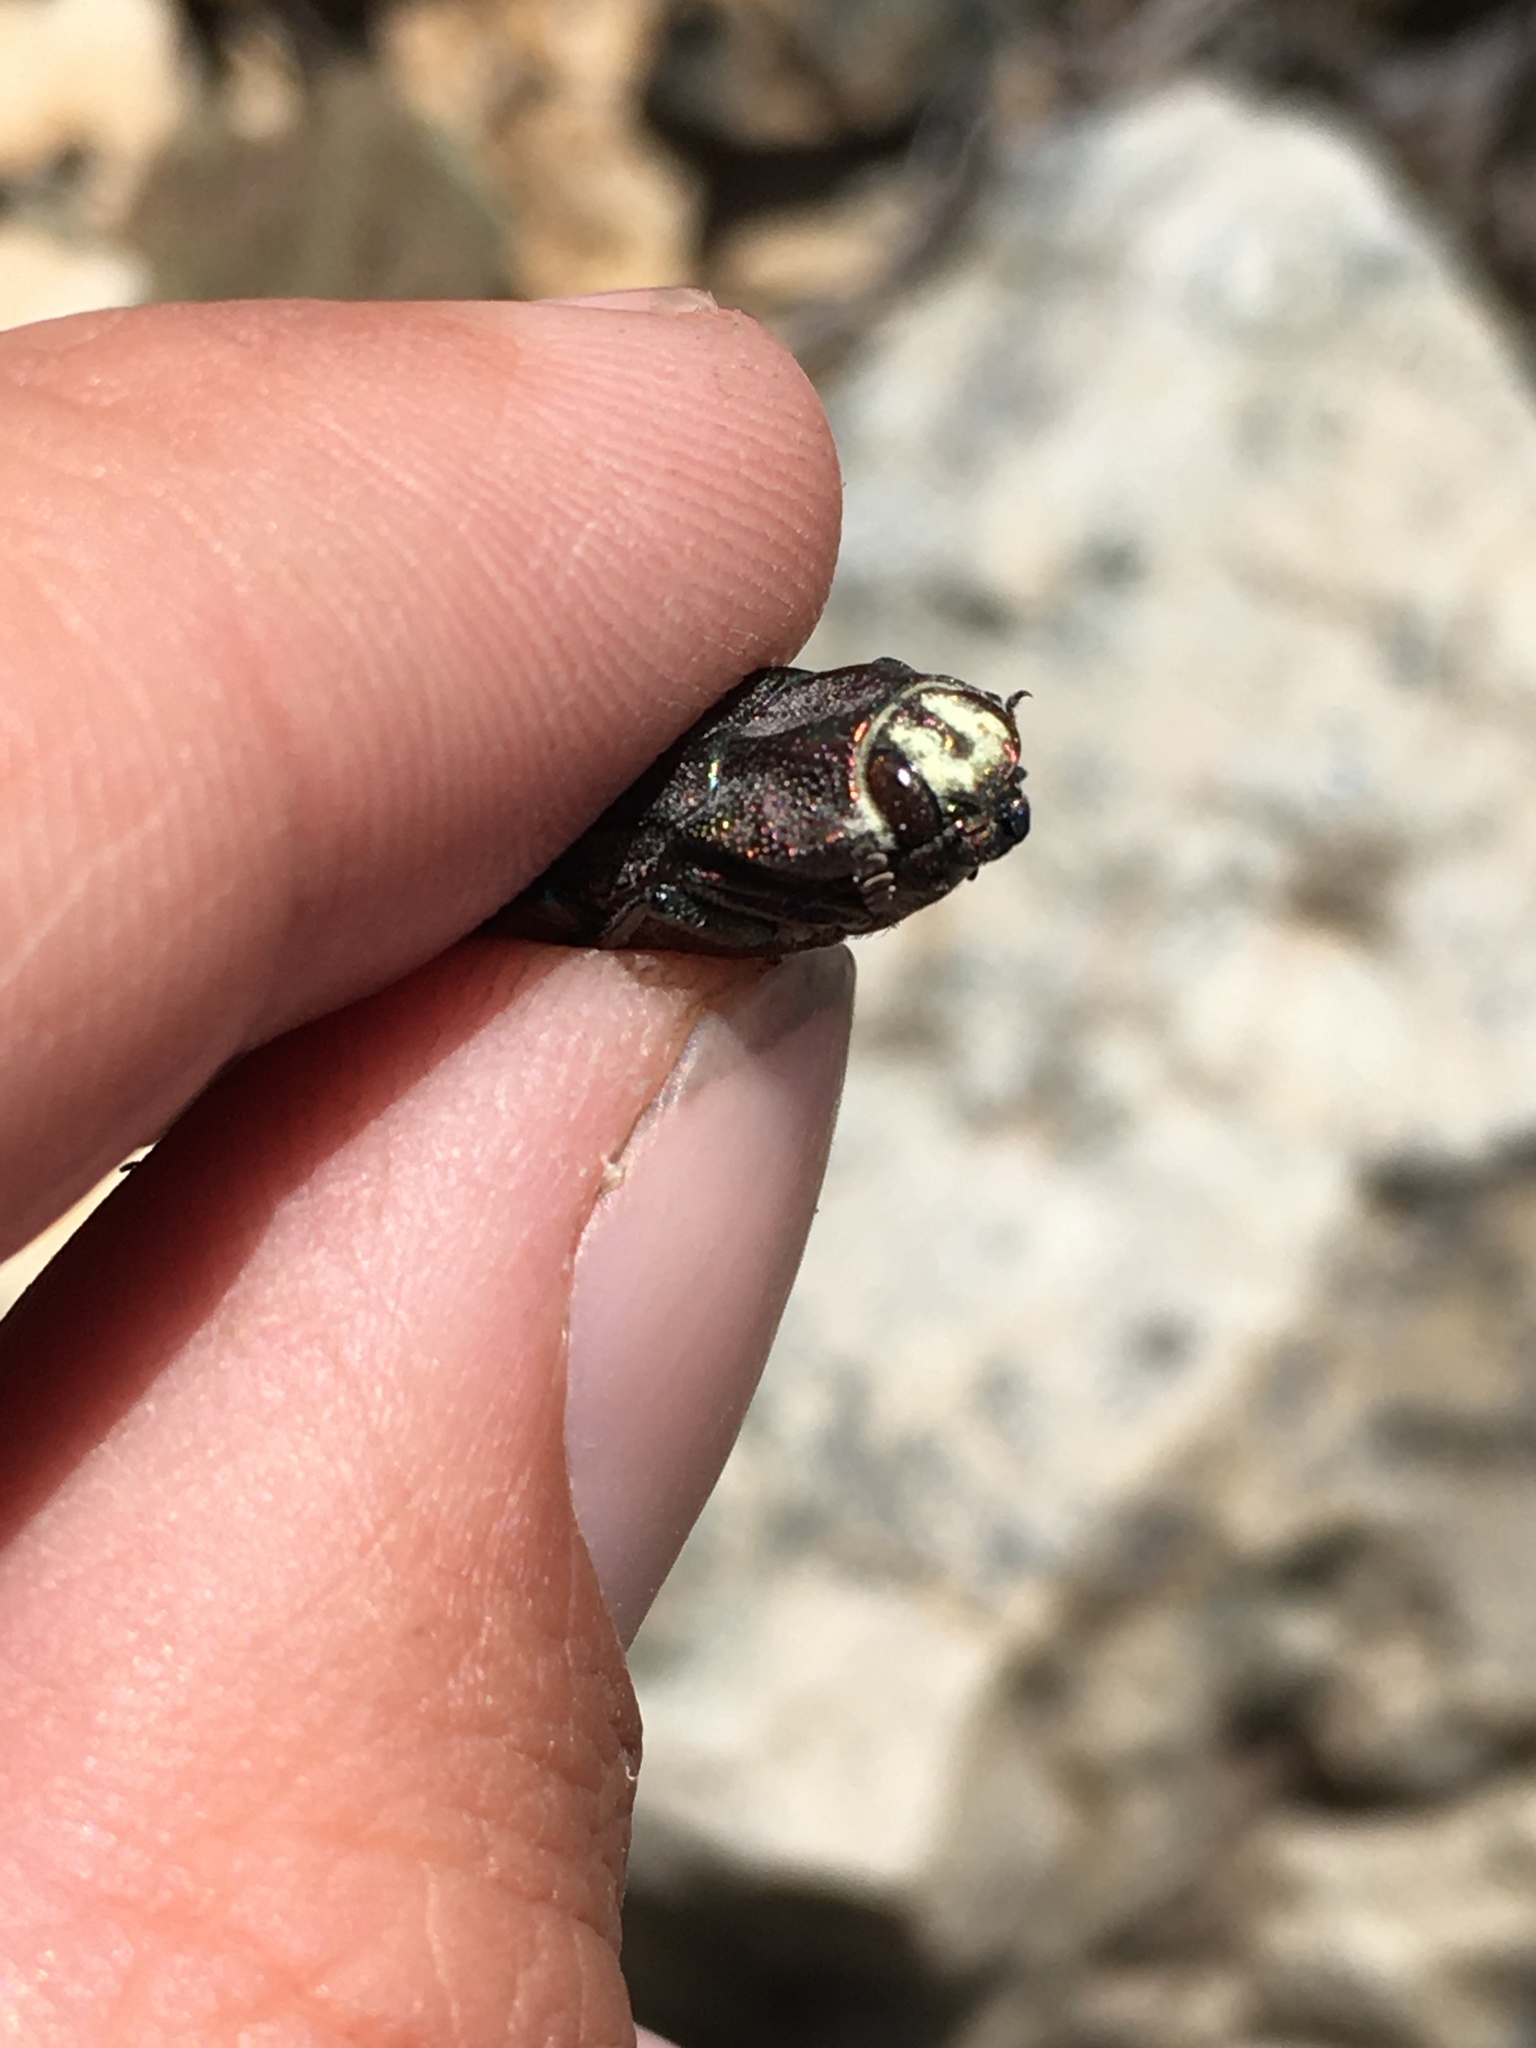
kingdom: Animalia
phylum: Arthropoda
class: Insecta
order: Coleoptera
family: Buprestidae
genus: Ectinogonia
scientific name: Ectinogonia chalyboeiventris
